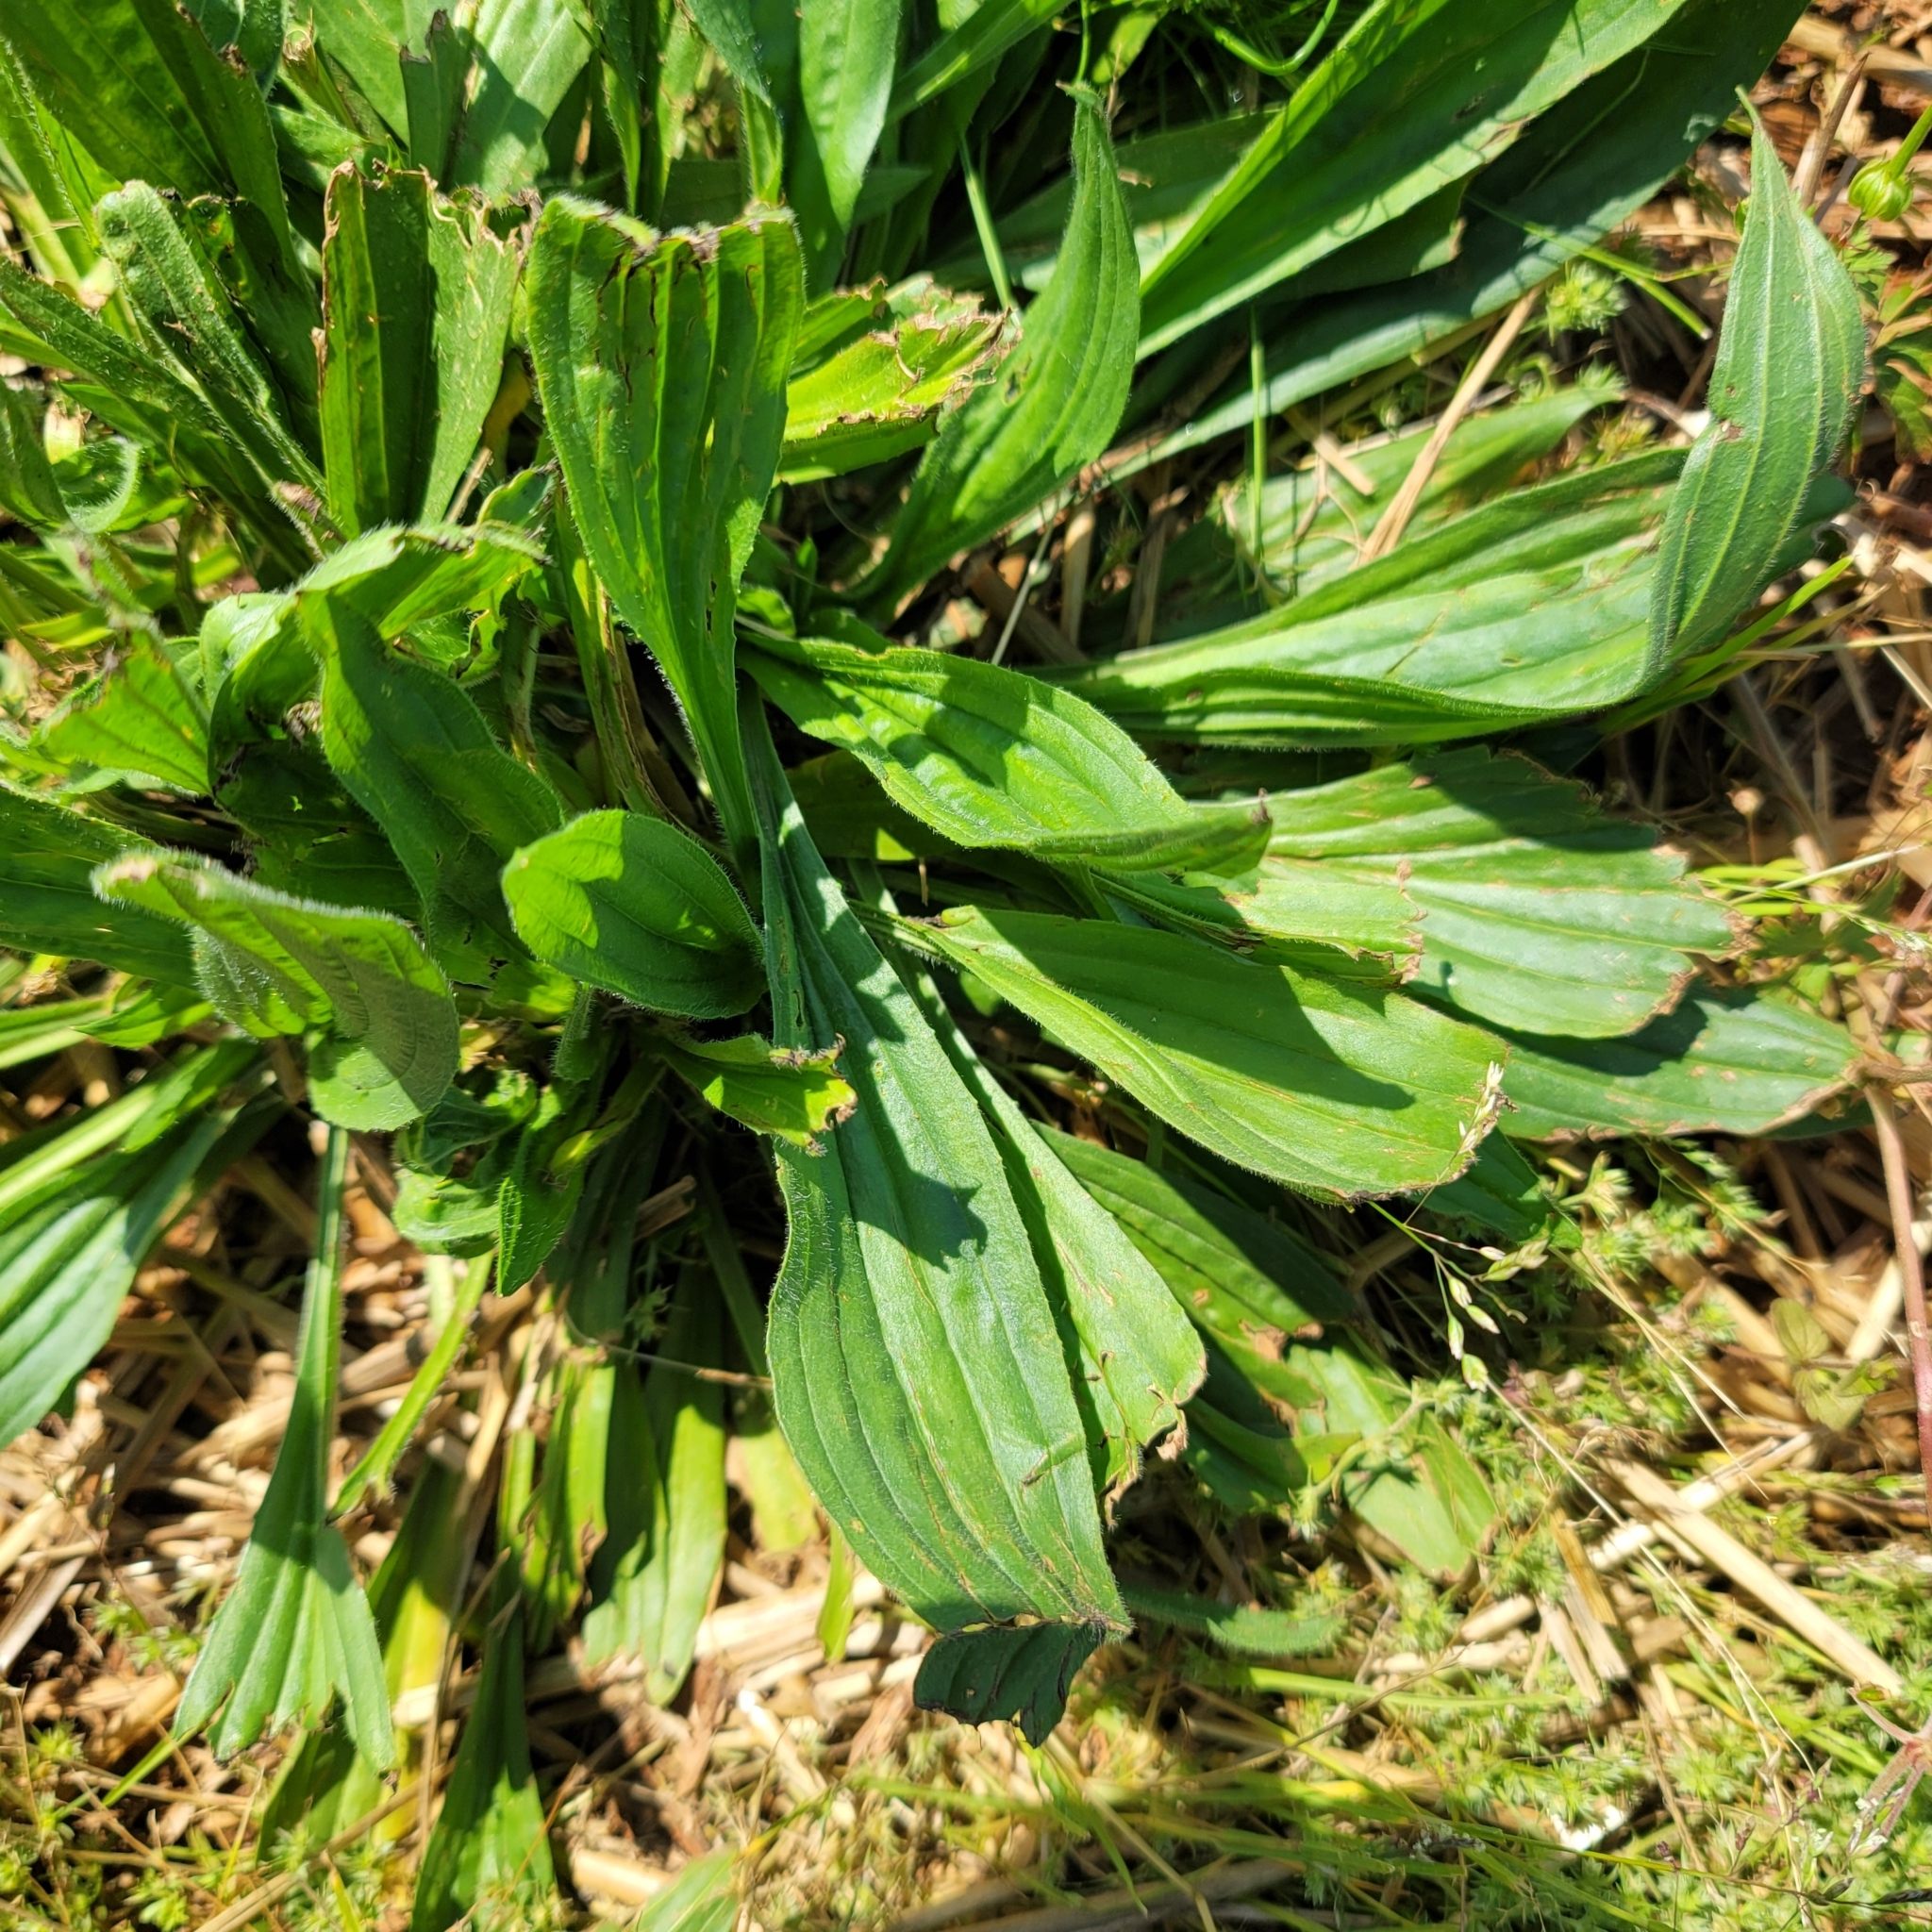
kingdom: Plantae
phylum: Tracheophyta
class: Magnoliopsida
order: Lamiales
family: Plantaginaceae
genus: Plantago
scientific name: Plantago lanceolata
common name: Ribwort plantain
